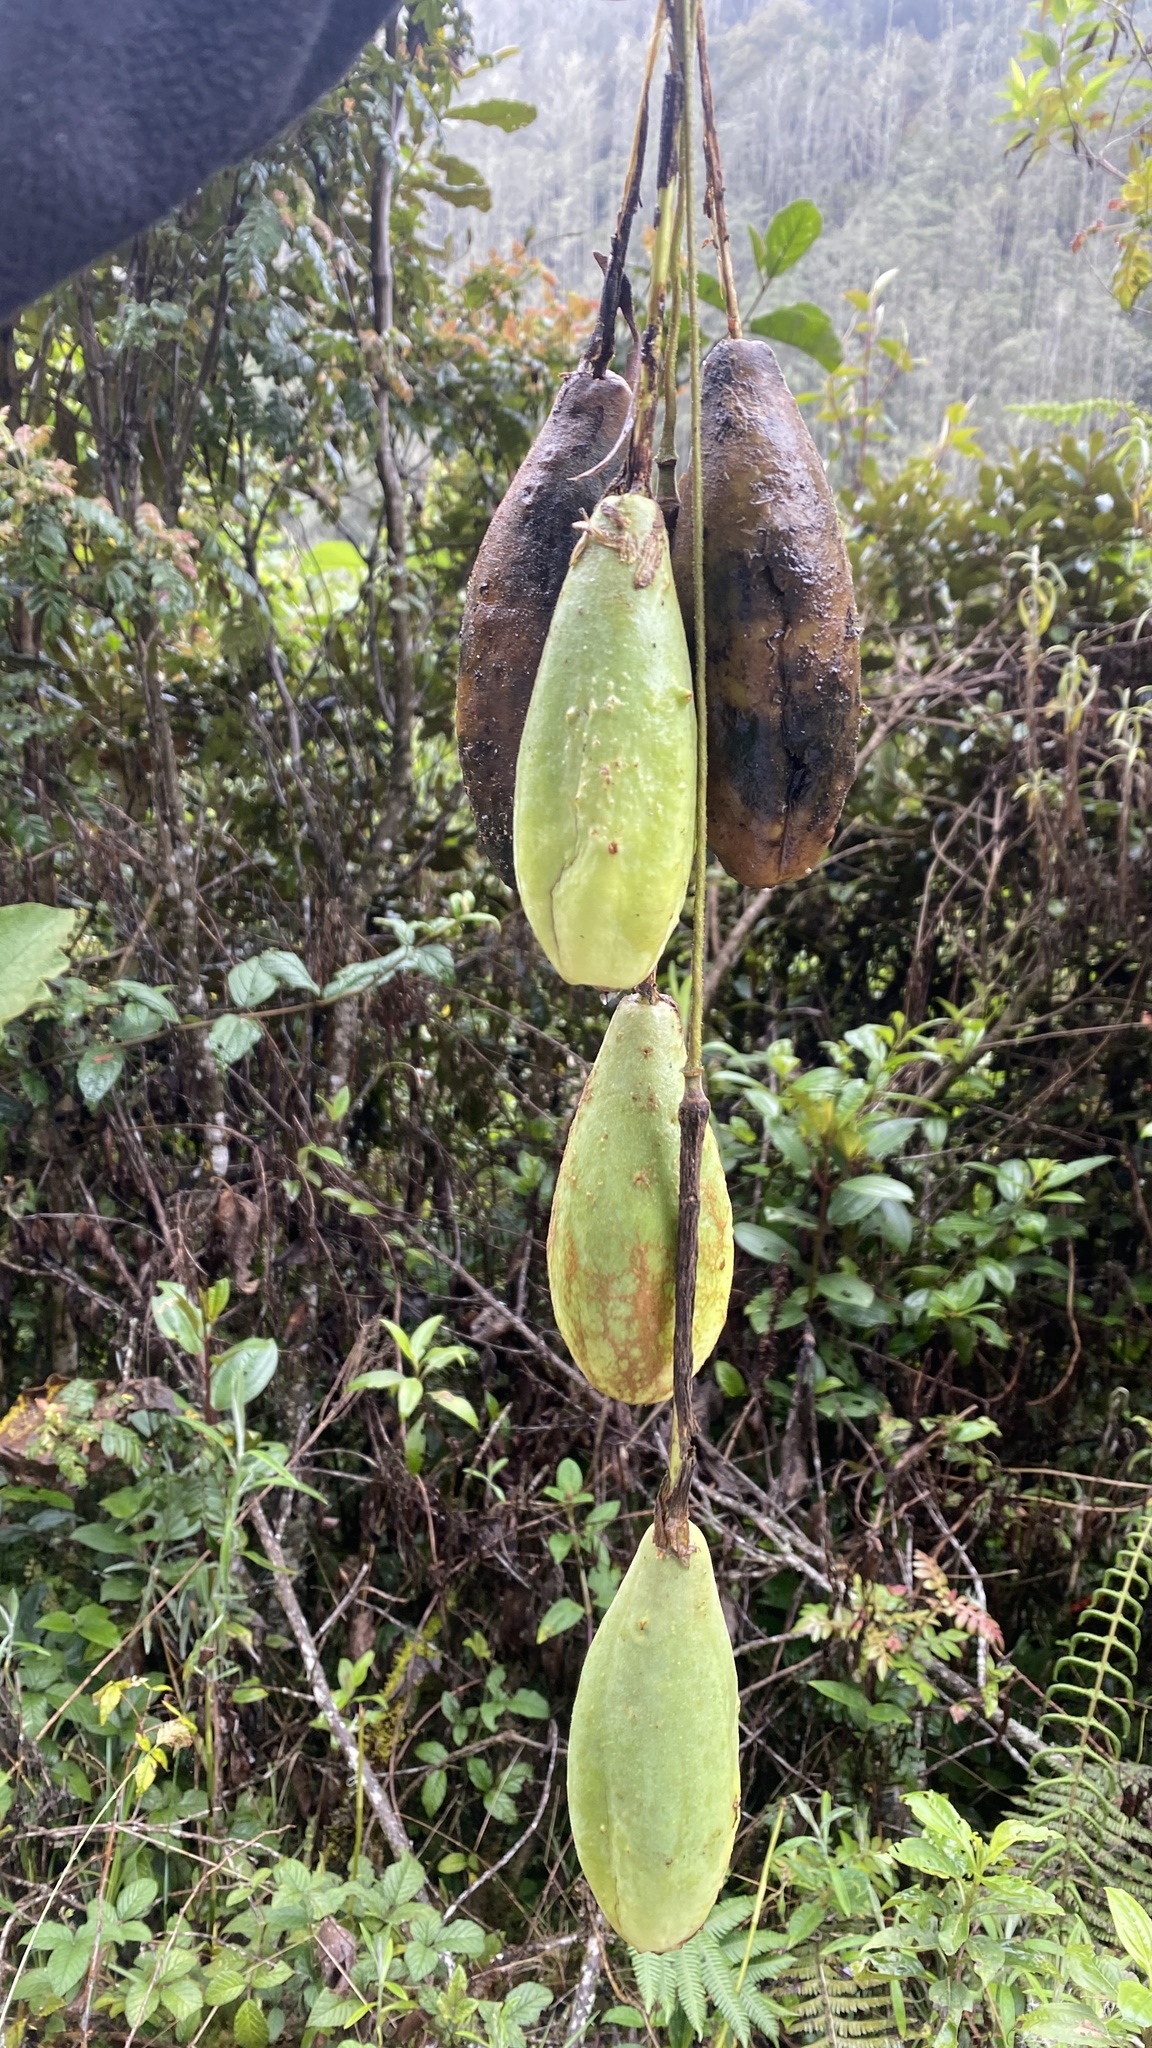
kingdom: Plantae
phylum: Tracheophyta
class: Magnoliopsida
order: Malpighiales
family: Passifloraceae
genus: Passiflora
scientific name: Passiflora tenerifensis
